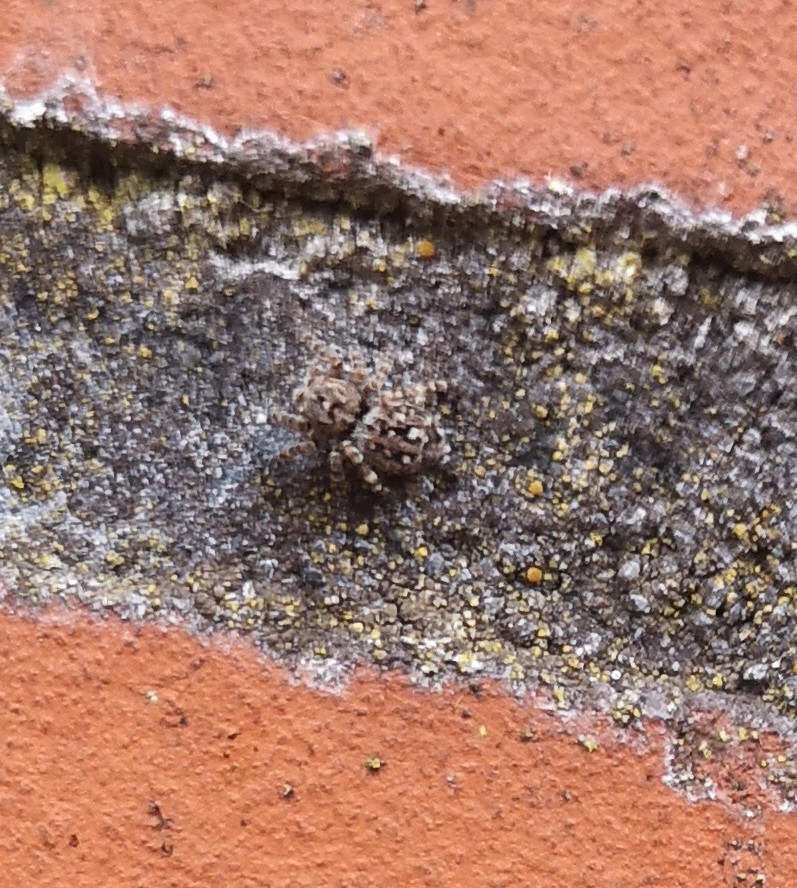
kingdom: Animalia
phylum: Arthropoda
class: Arachnida
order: Araneae
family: Salticidae
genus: Attulus
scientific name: Attulus pubescens
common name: Jumping spider
